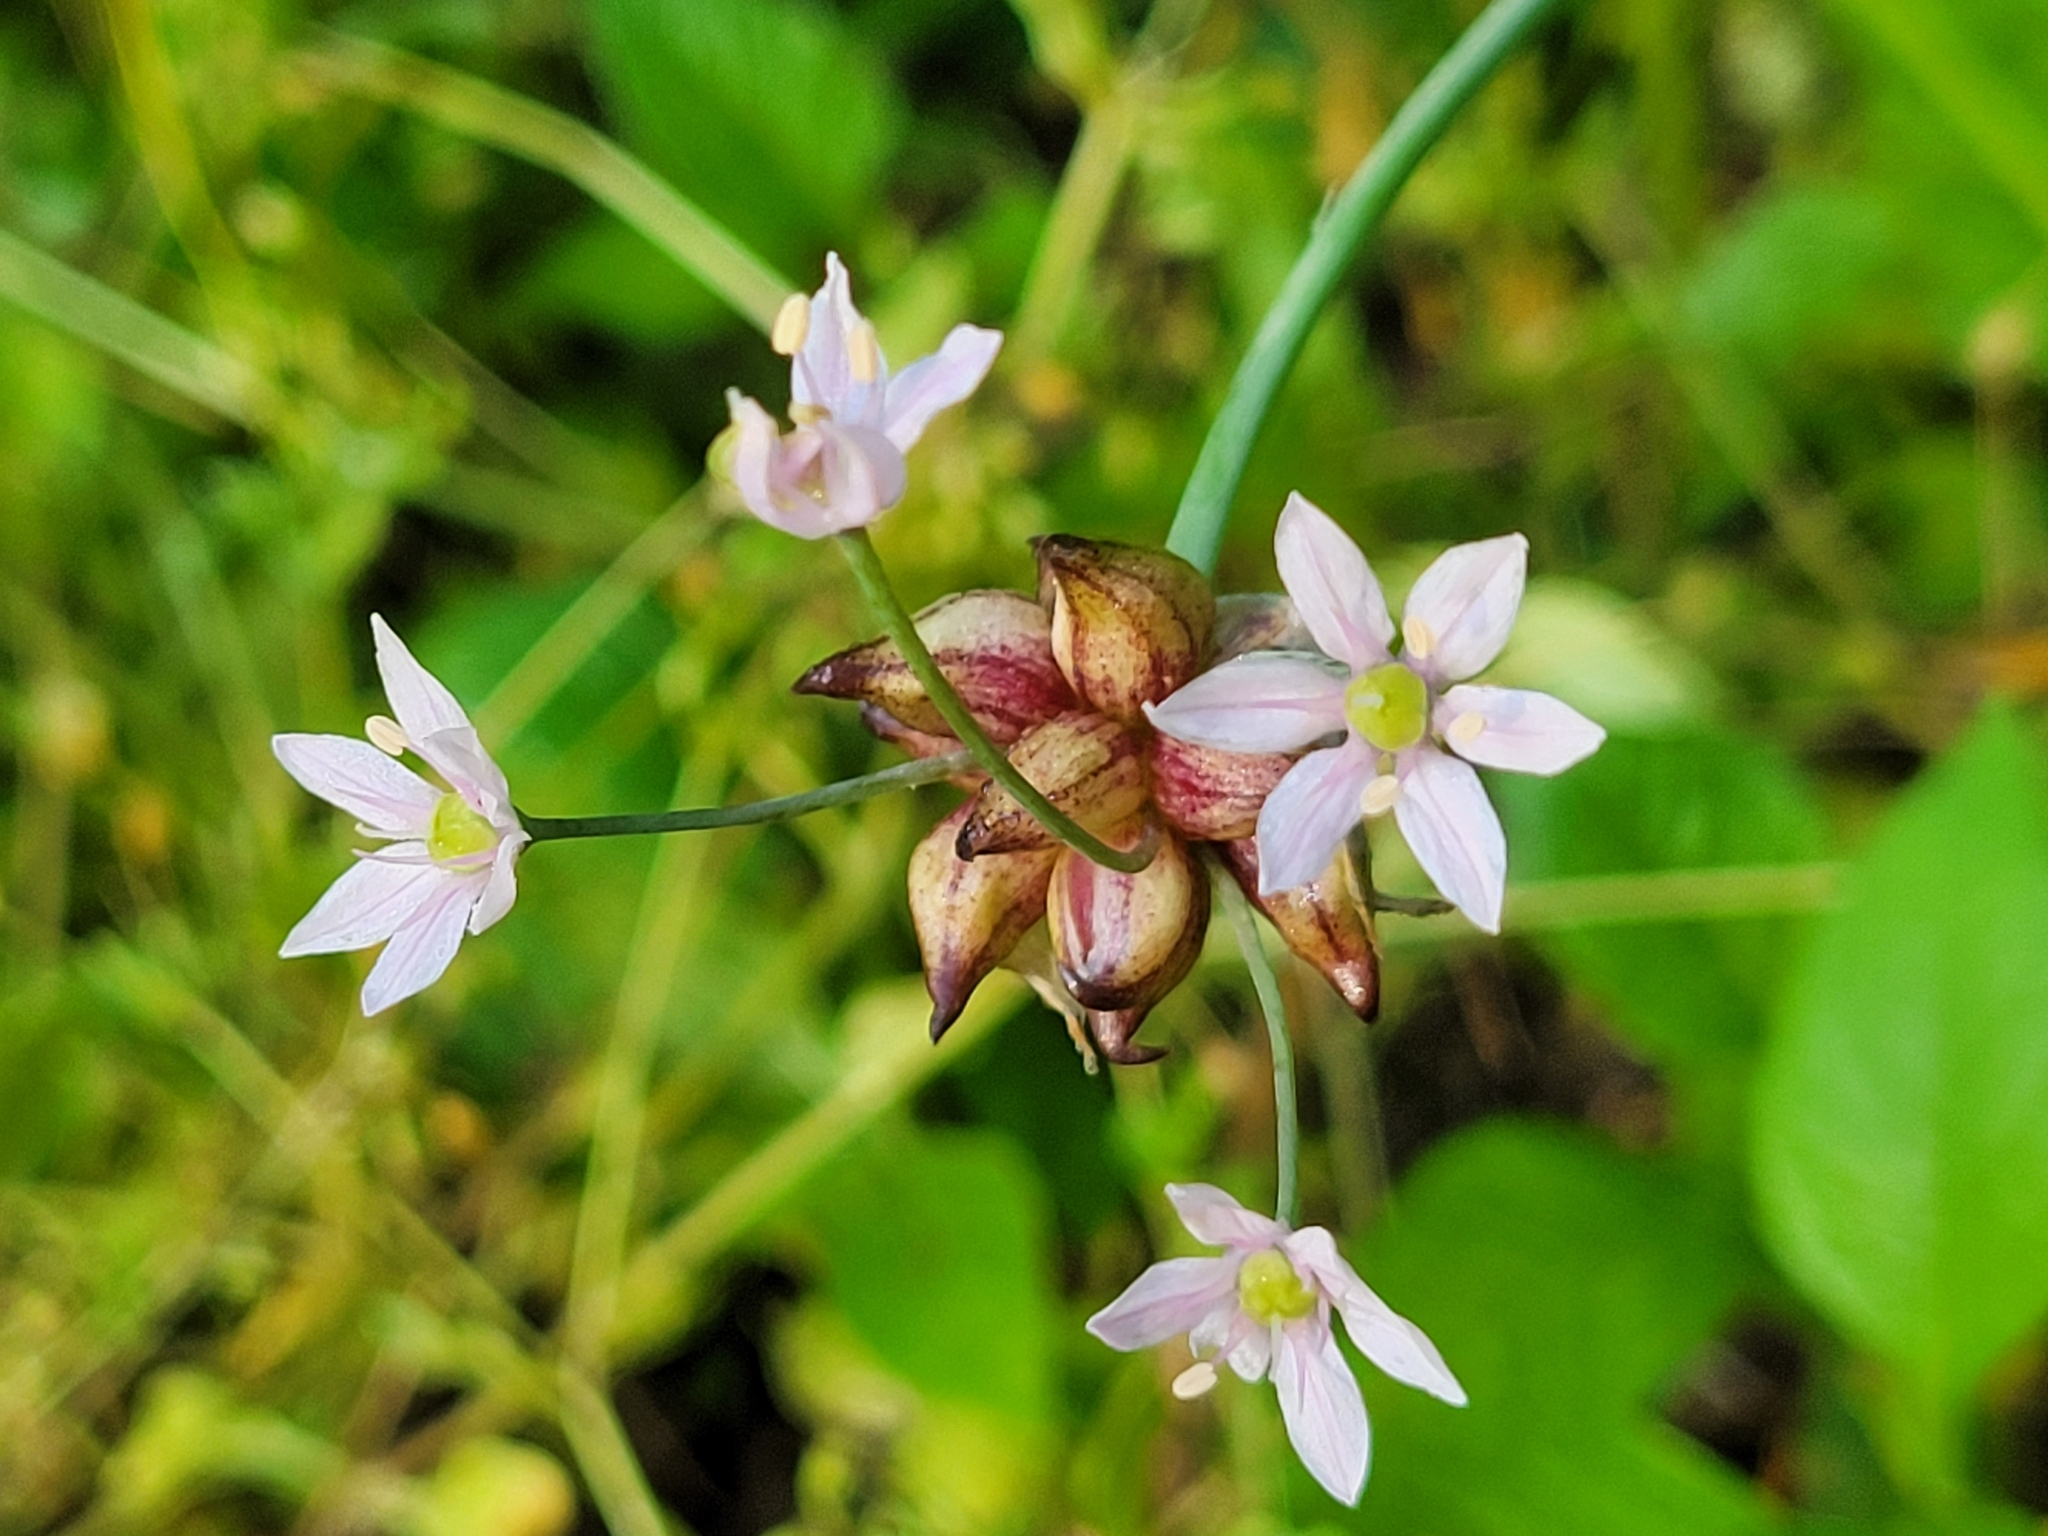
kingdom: Plantae
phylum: Tracheophyta
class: Liliopsida
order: Asparagales
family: Amaryllidaceae
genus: Allium
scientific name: Allium canadense
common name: Meadow garlic
